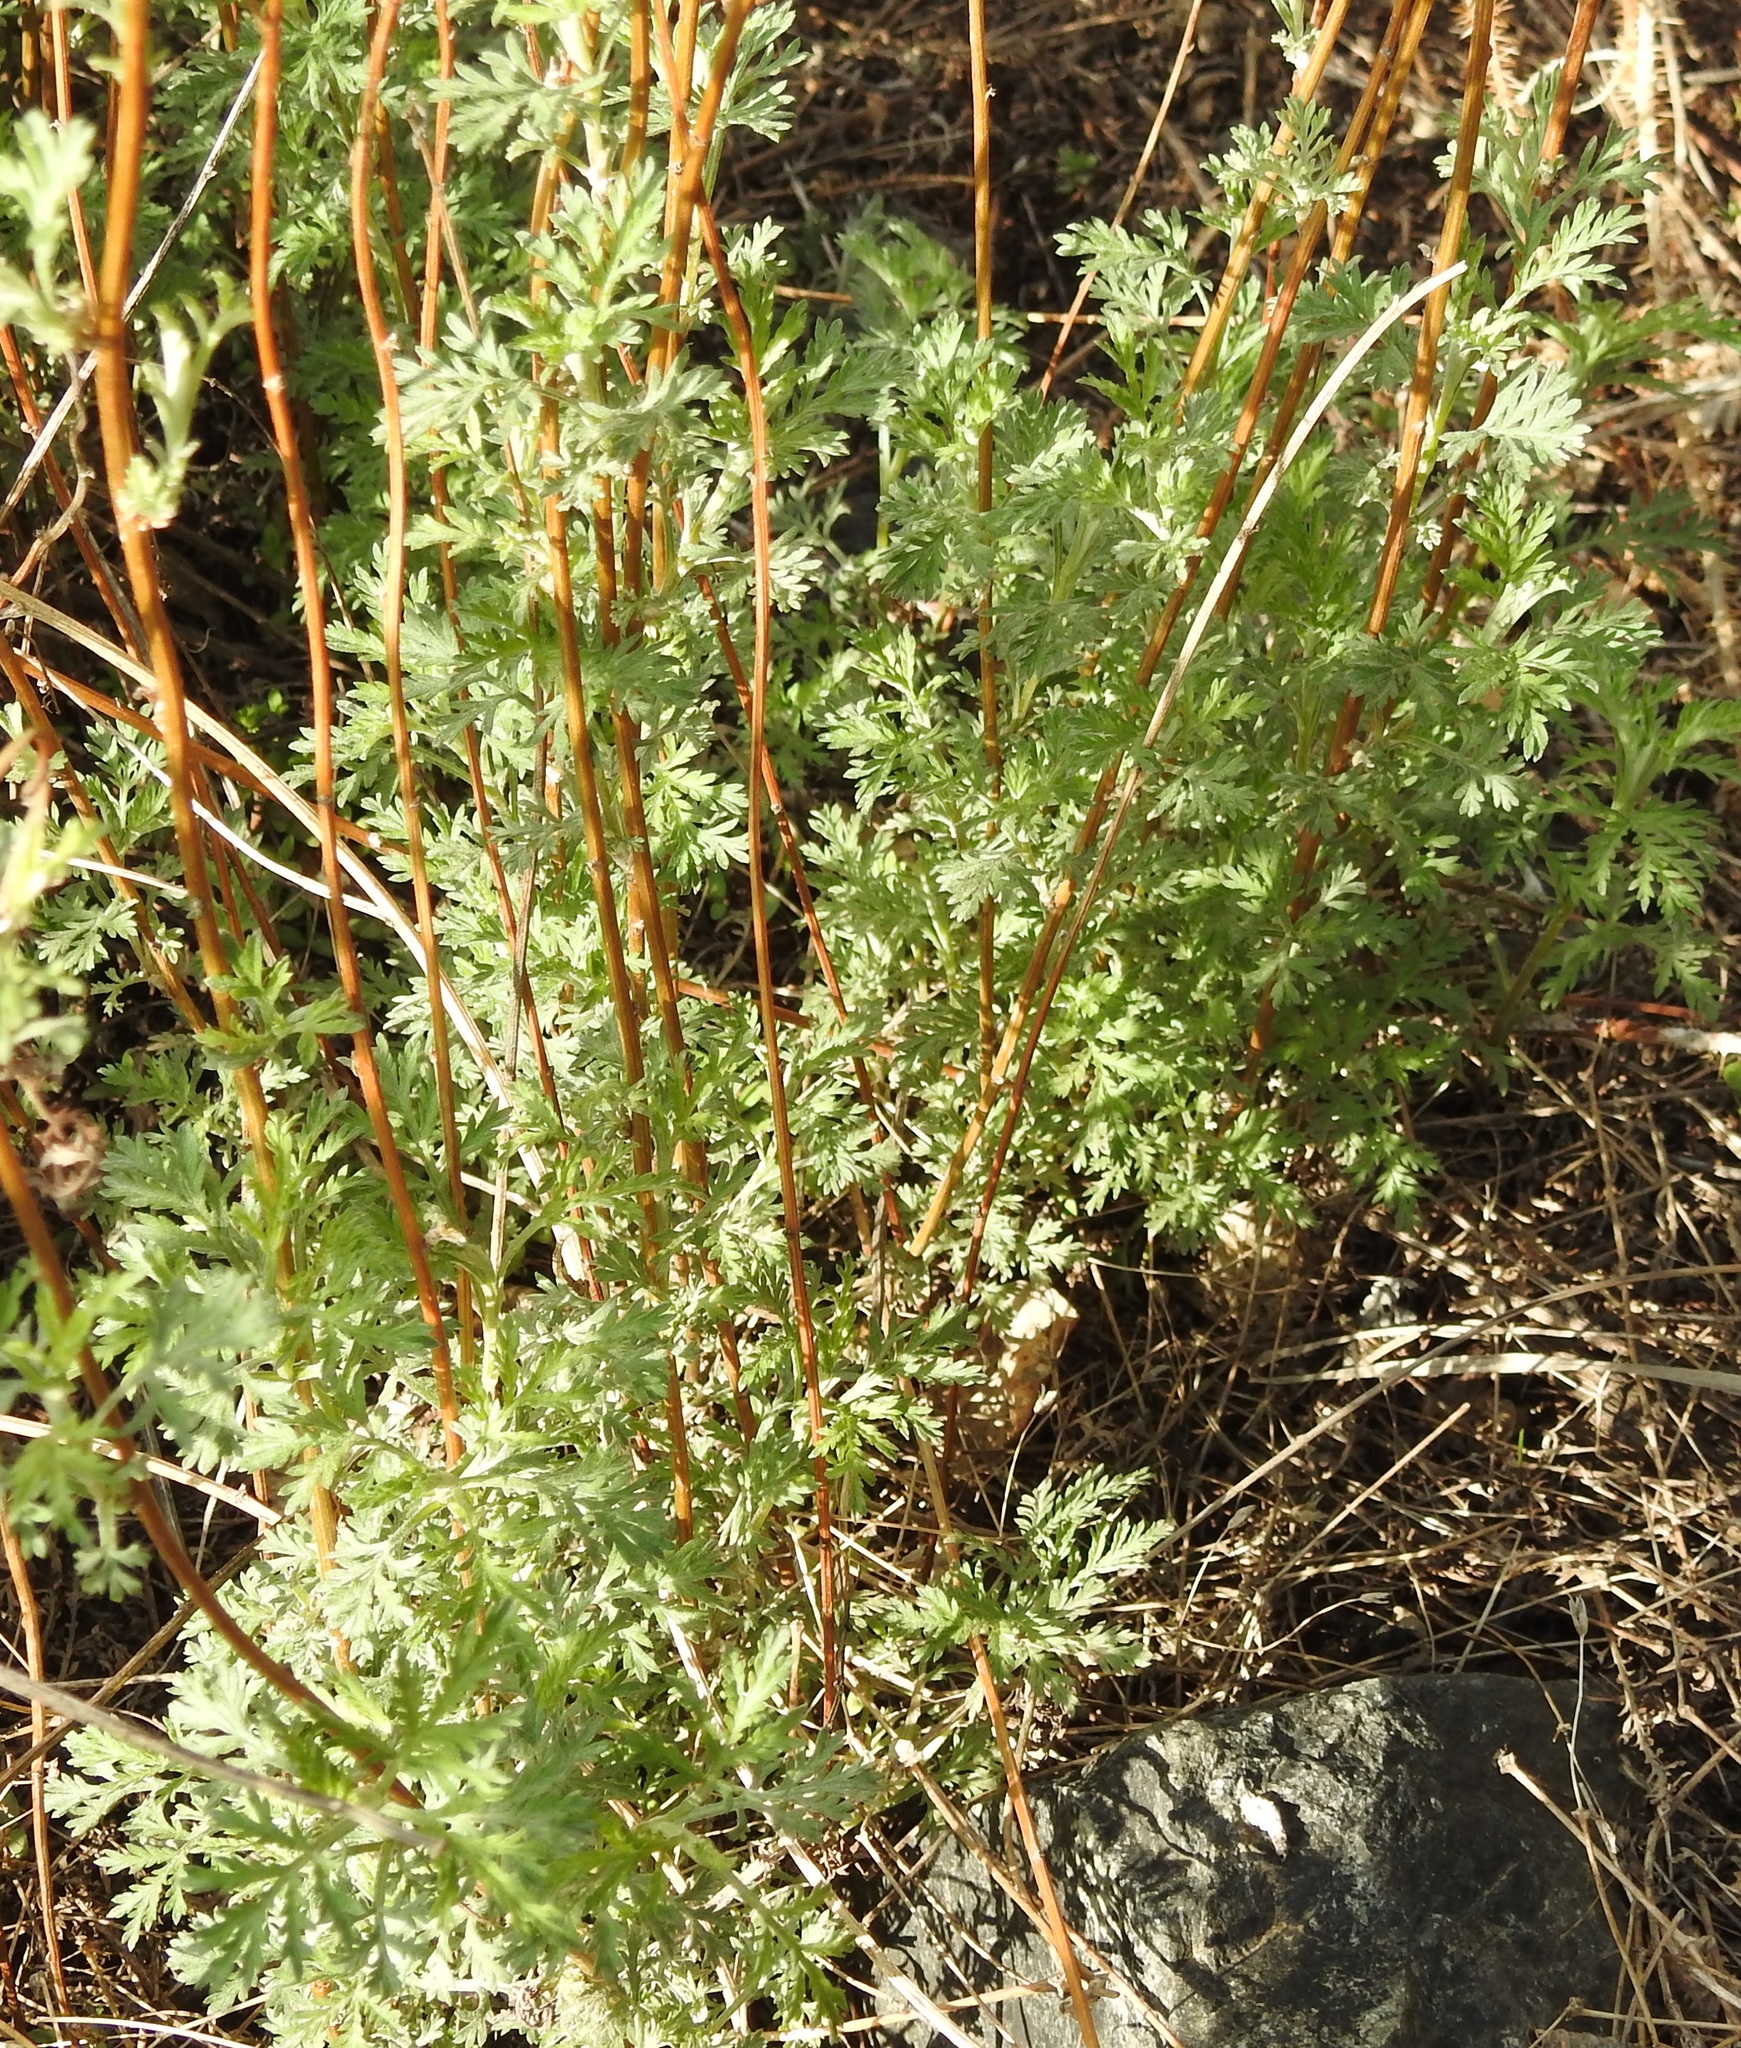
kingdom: Plantae
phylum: Tracheophyta
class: Magnoliopsida
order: Asterales
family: Asteraceae
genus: Artemisia
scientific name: Artemisia gmelinii
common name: Gmelin's wormwood
